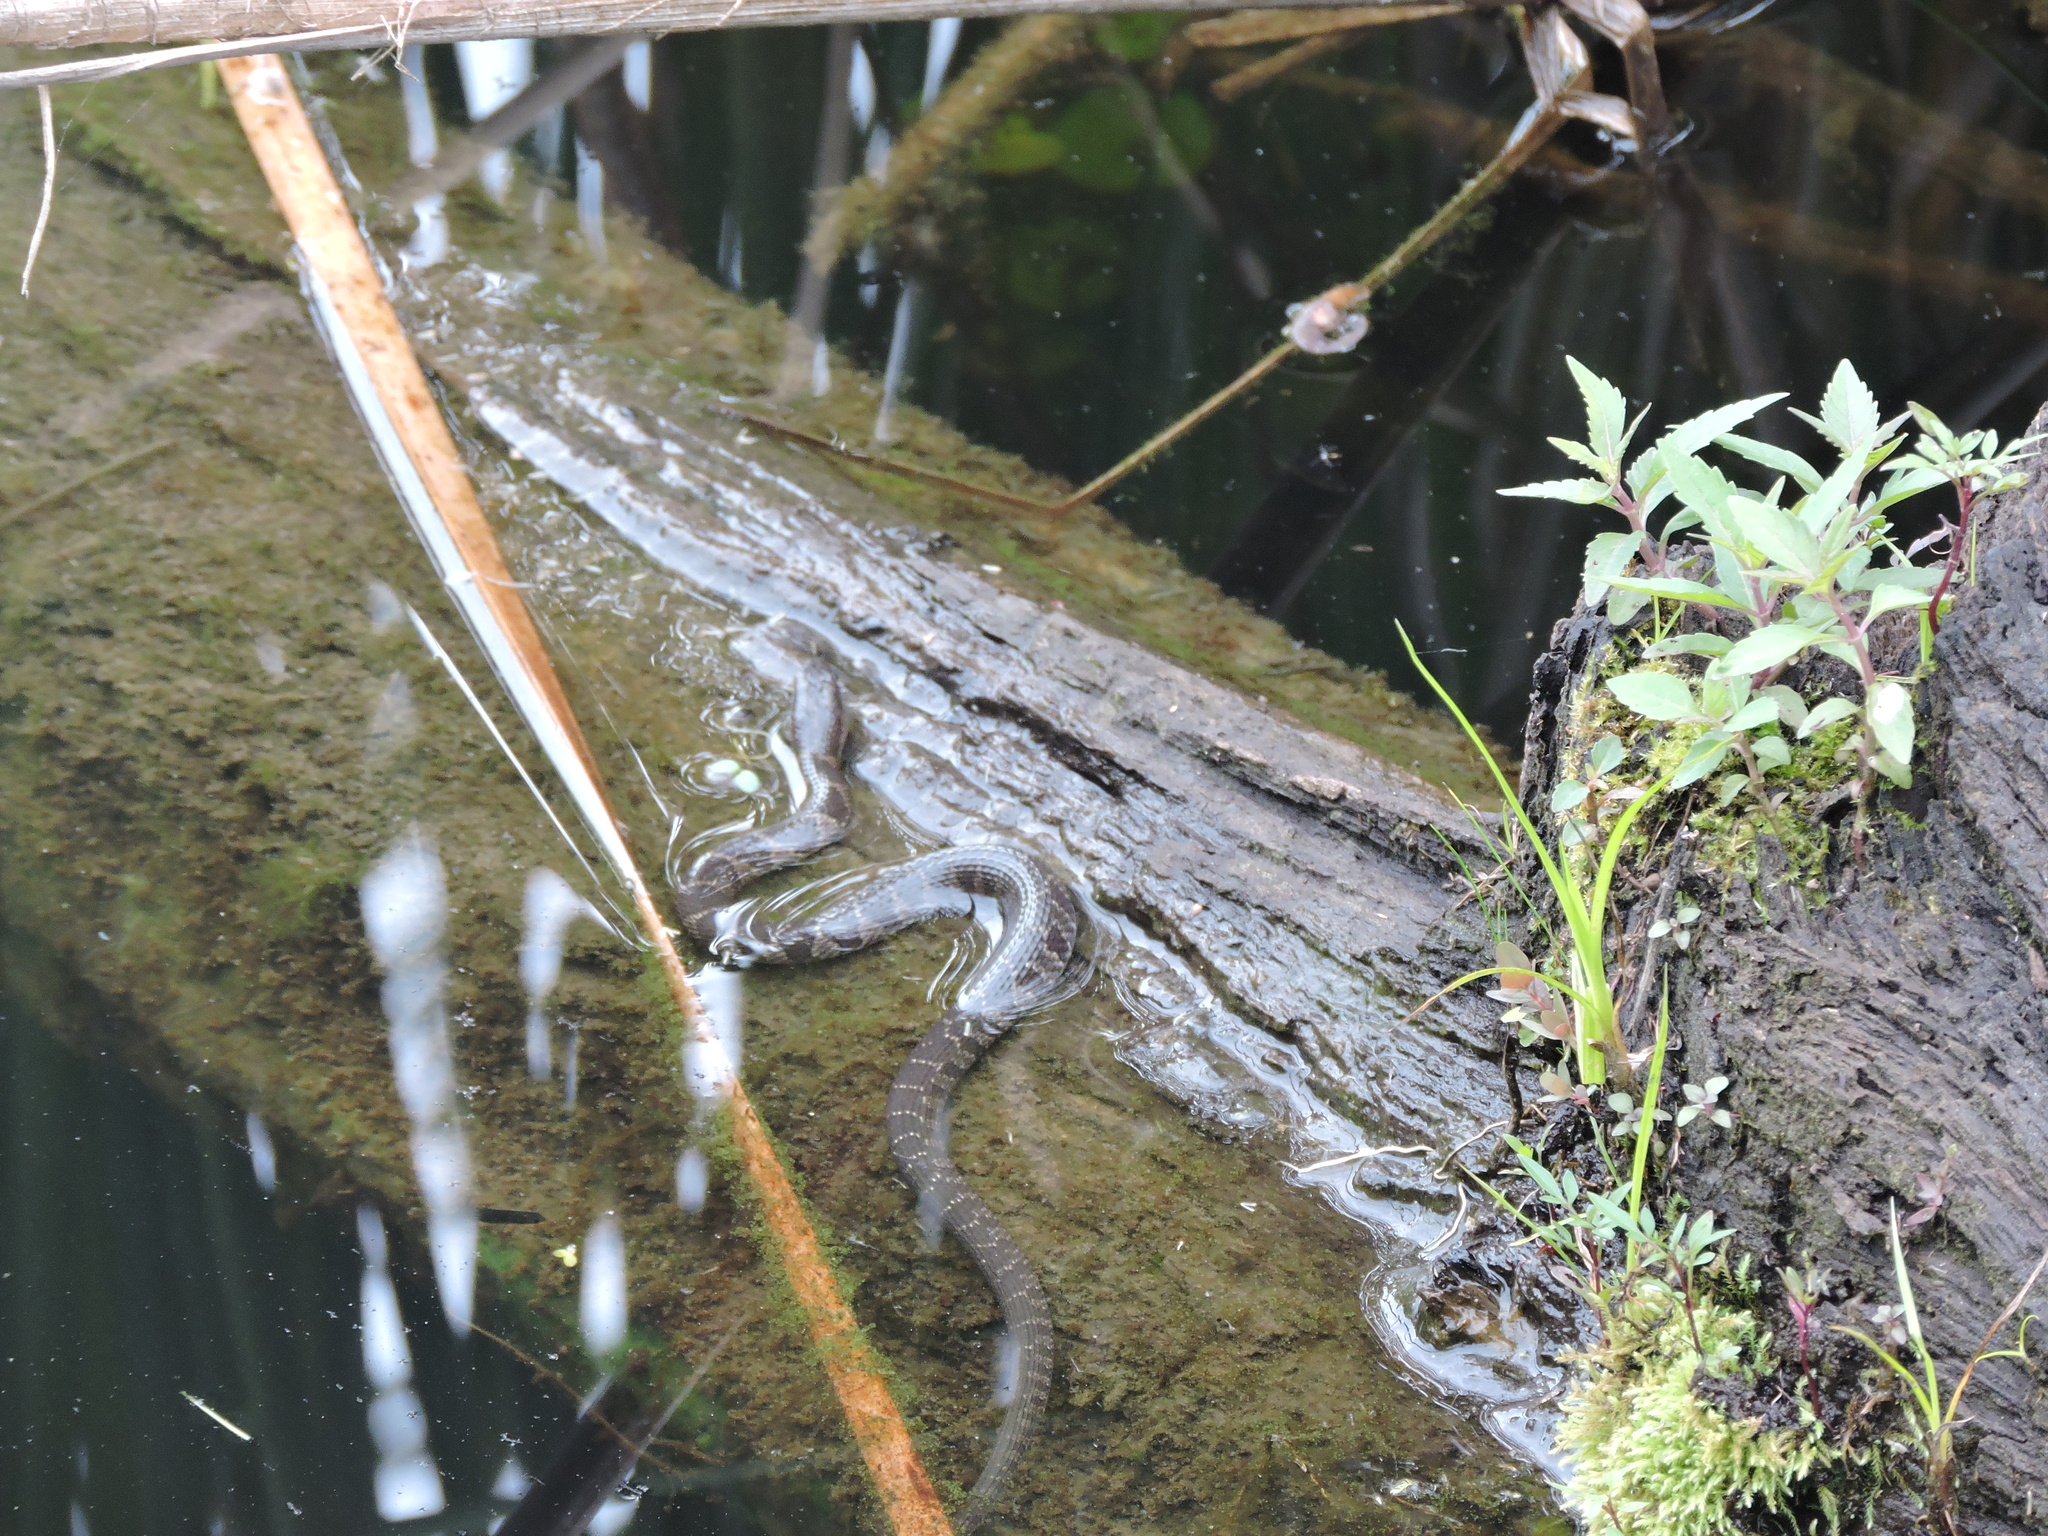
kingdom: Animalia
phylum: Chordata
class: Squamata
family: Colubridae
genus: Nerodia
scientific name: Nerodia sipedon
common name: Northern water snake
